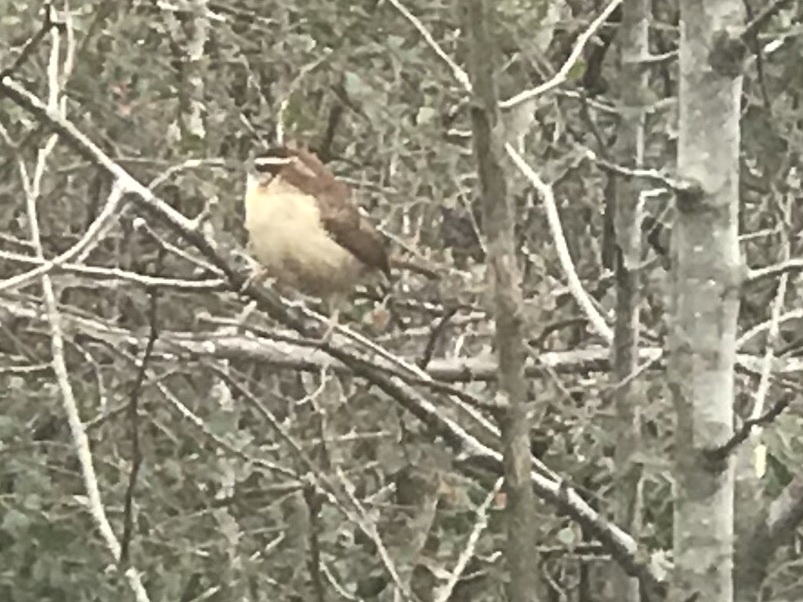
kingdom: Animalia
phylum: Chordata
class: Aves
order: Passeriformes
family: Troglodytidae
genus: Thryothorus
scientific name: Thryothorus ludovicianus
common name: Carolina wren
